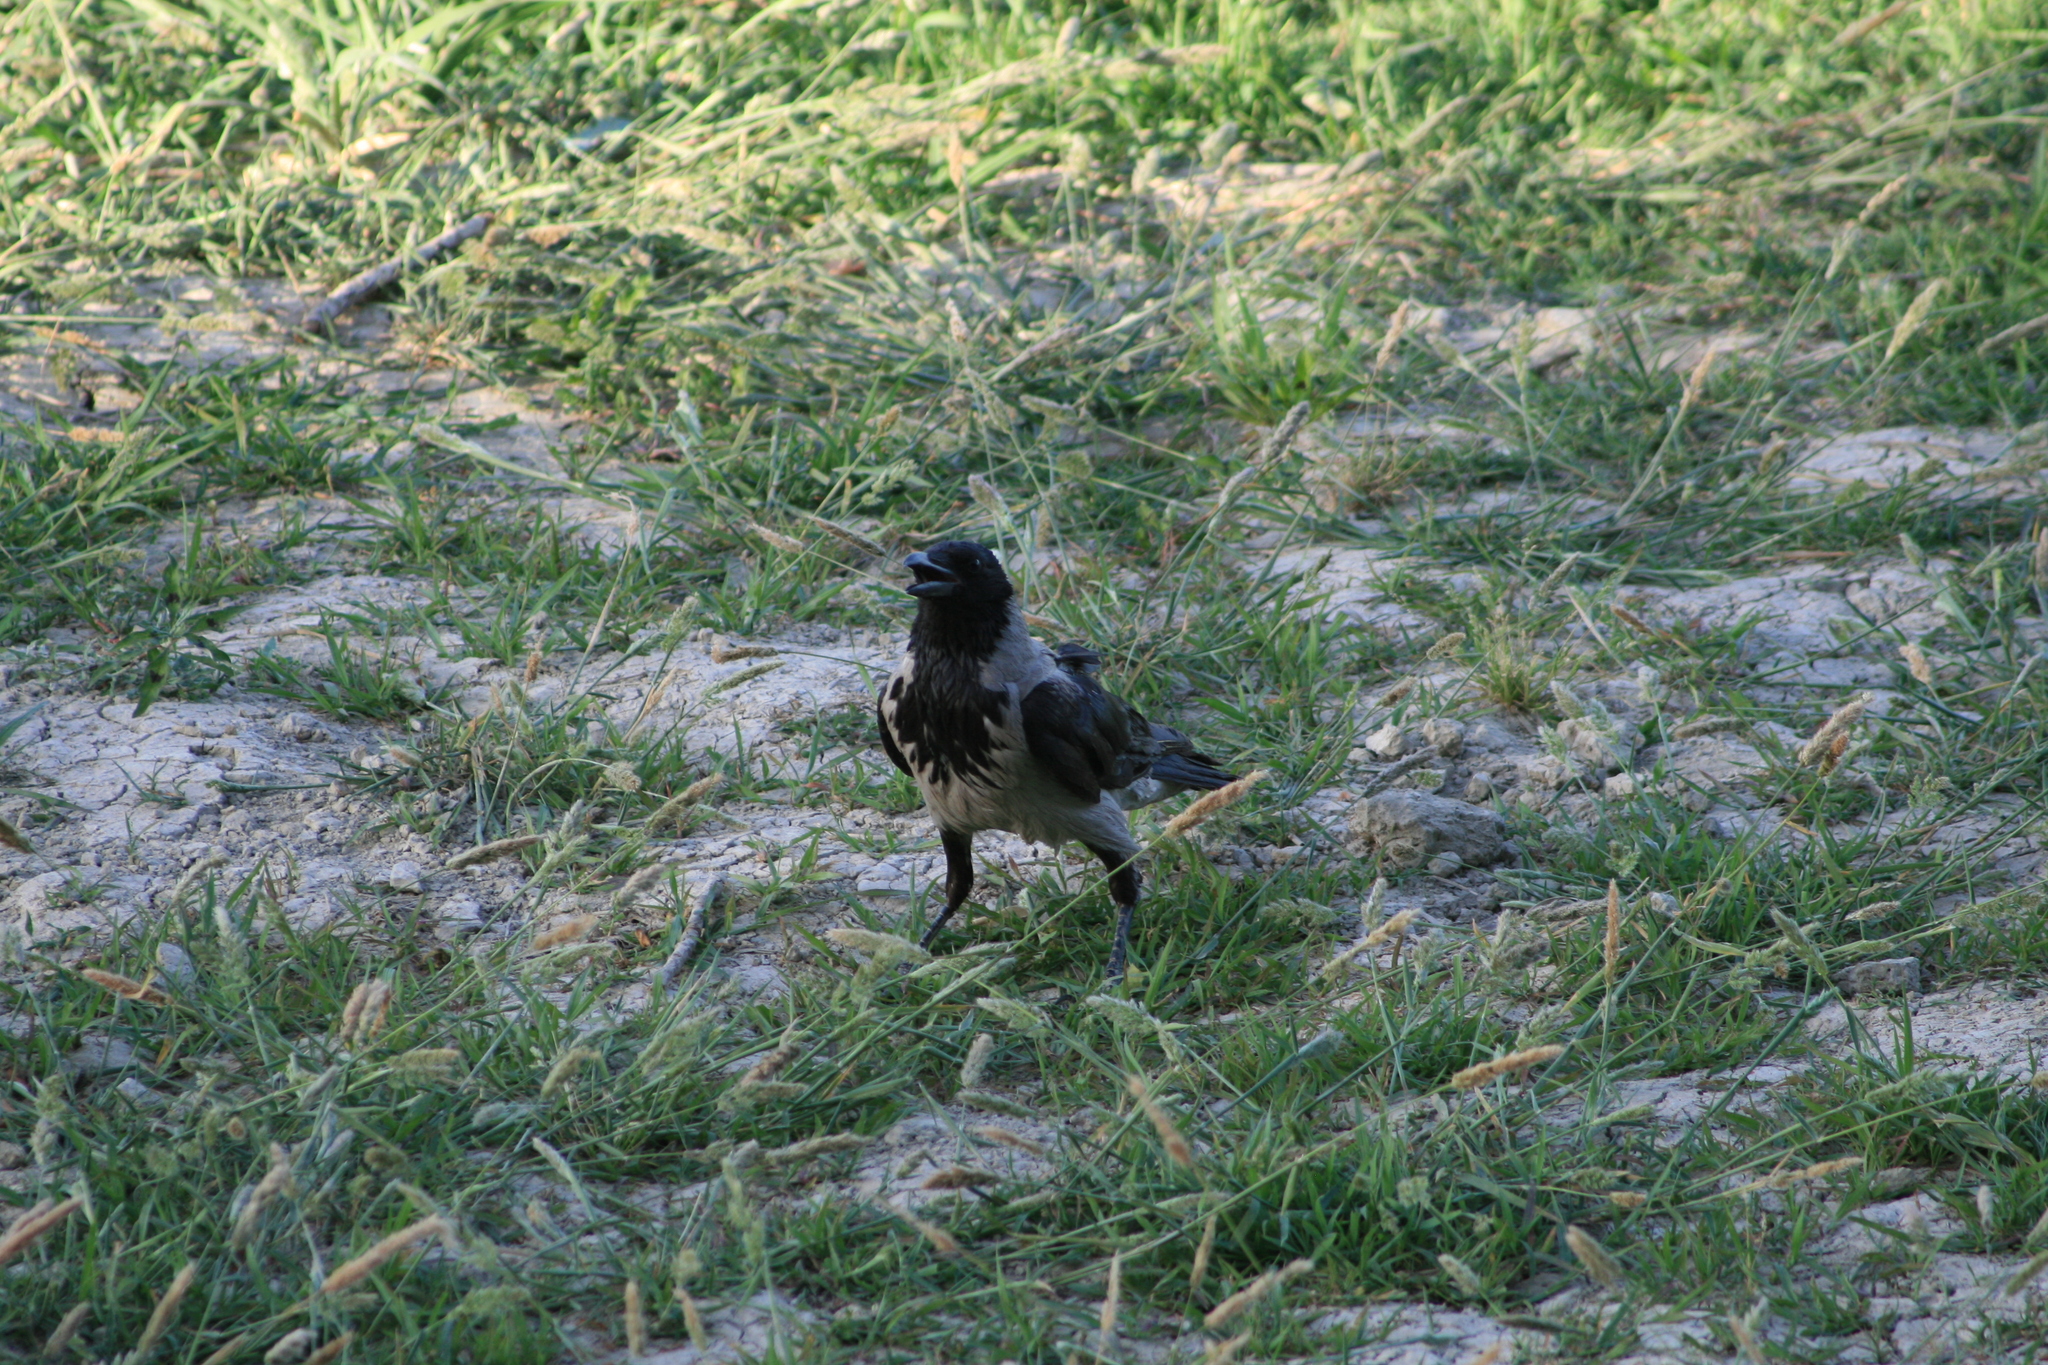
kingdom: Animalia
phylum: Chordata
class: Aves
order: Passeriformes
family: Corvidae
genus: Corvus
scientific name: Corvus cornix
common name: Hooded crow
